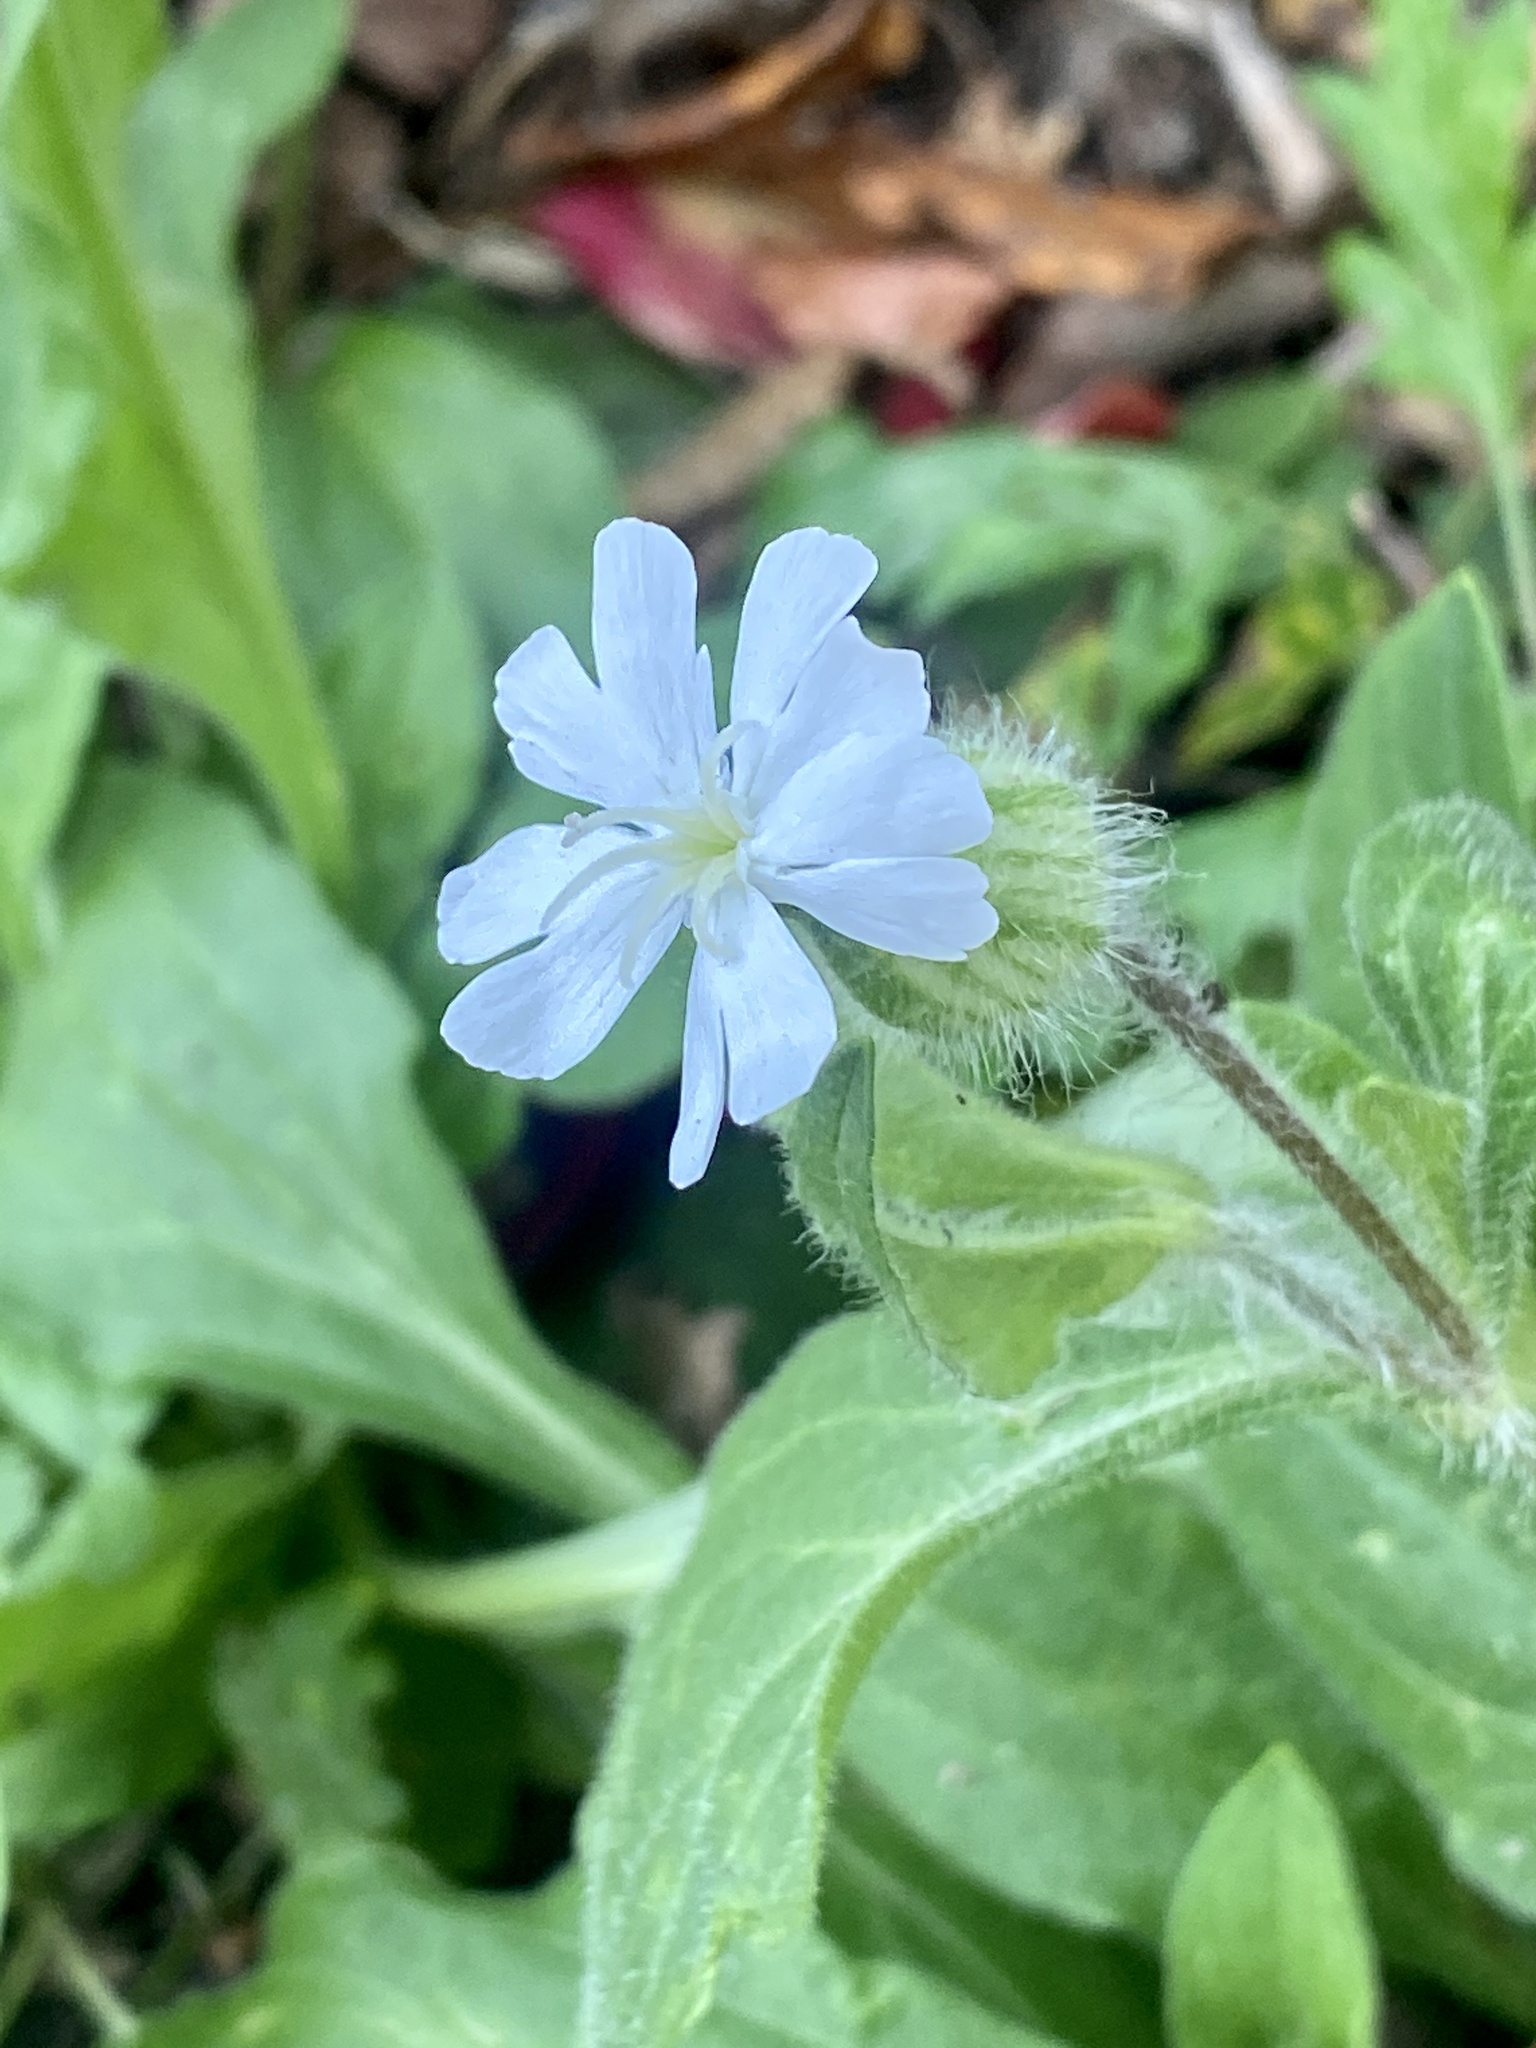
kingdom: Plantae
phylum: Tracheophyta
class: Magnoliopsida
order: Caryophyllales
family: Caryophyllaceae
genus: Silene
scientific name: Silene latifolia
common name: White campion
